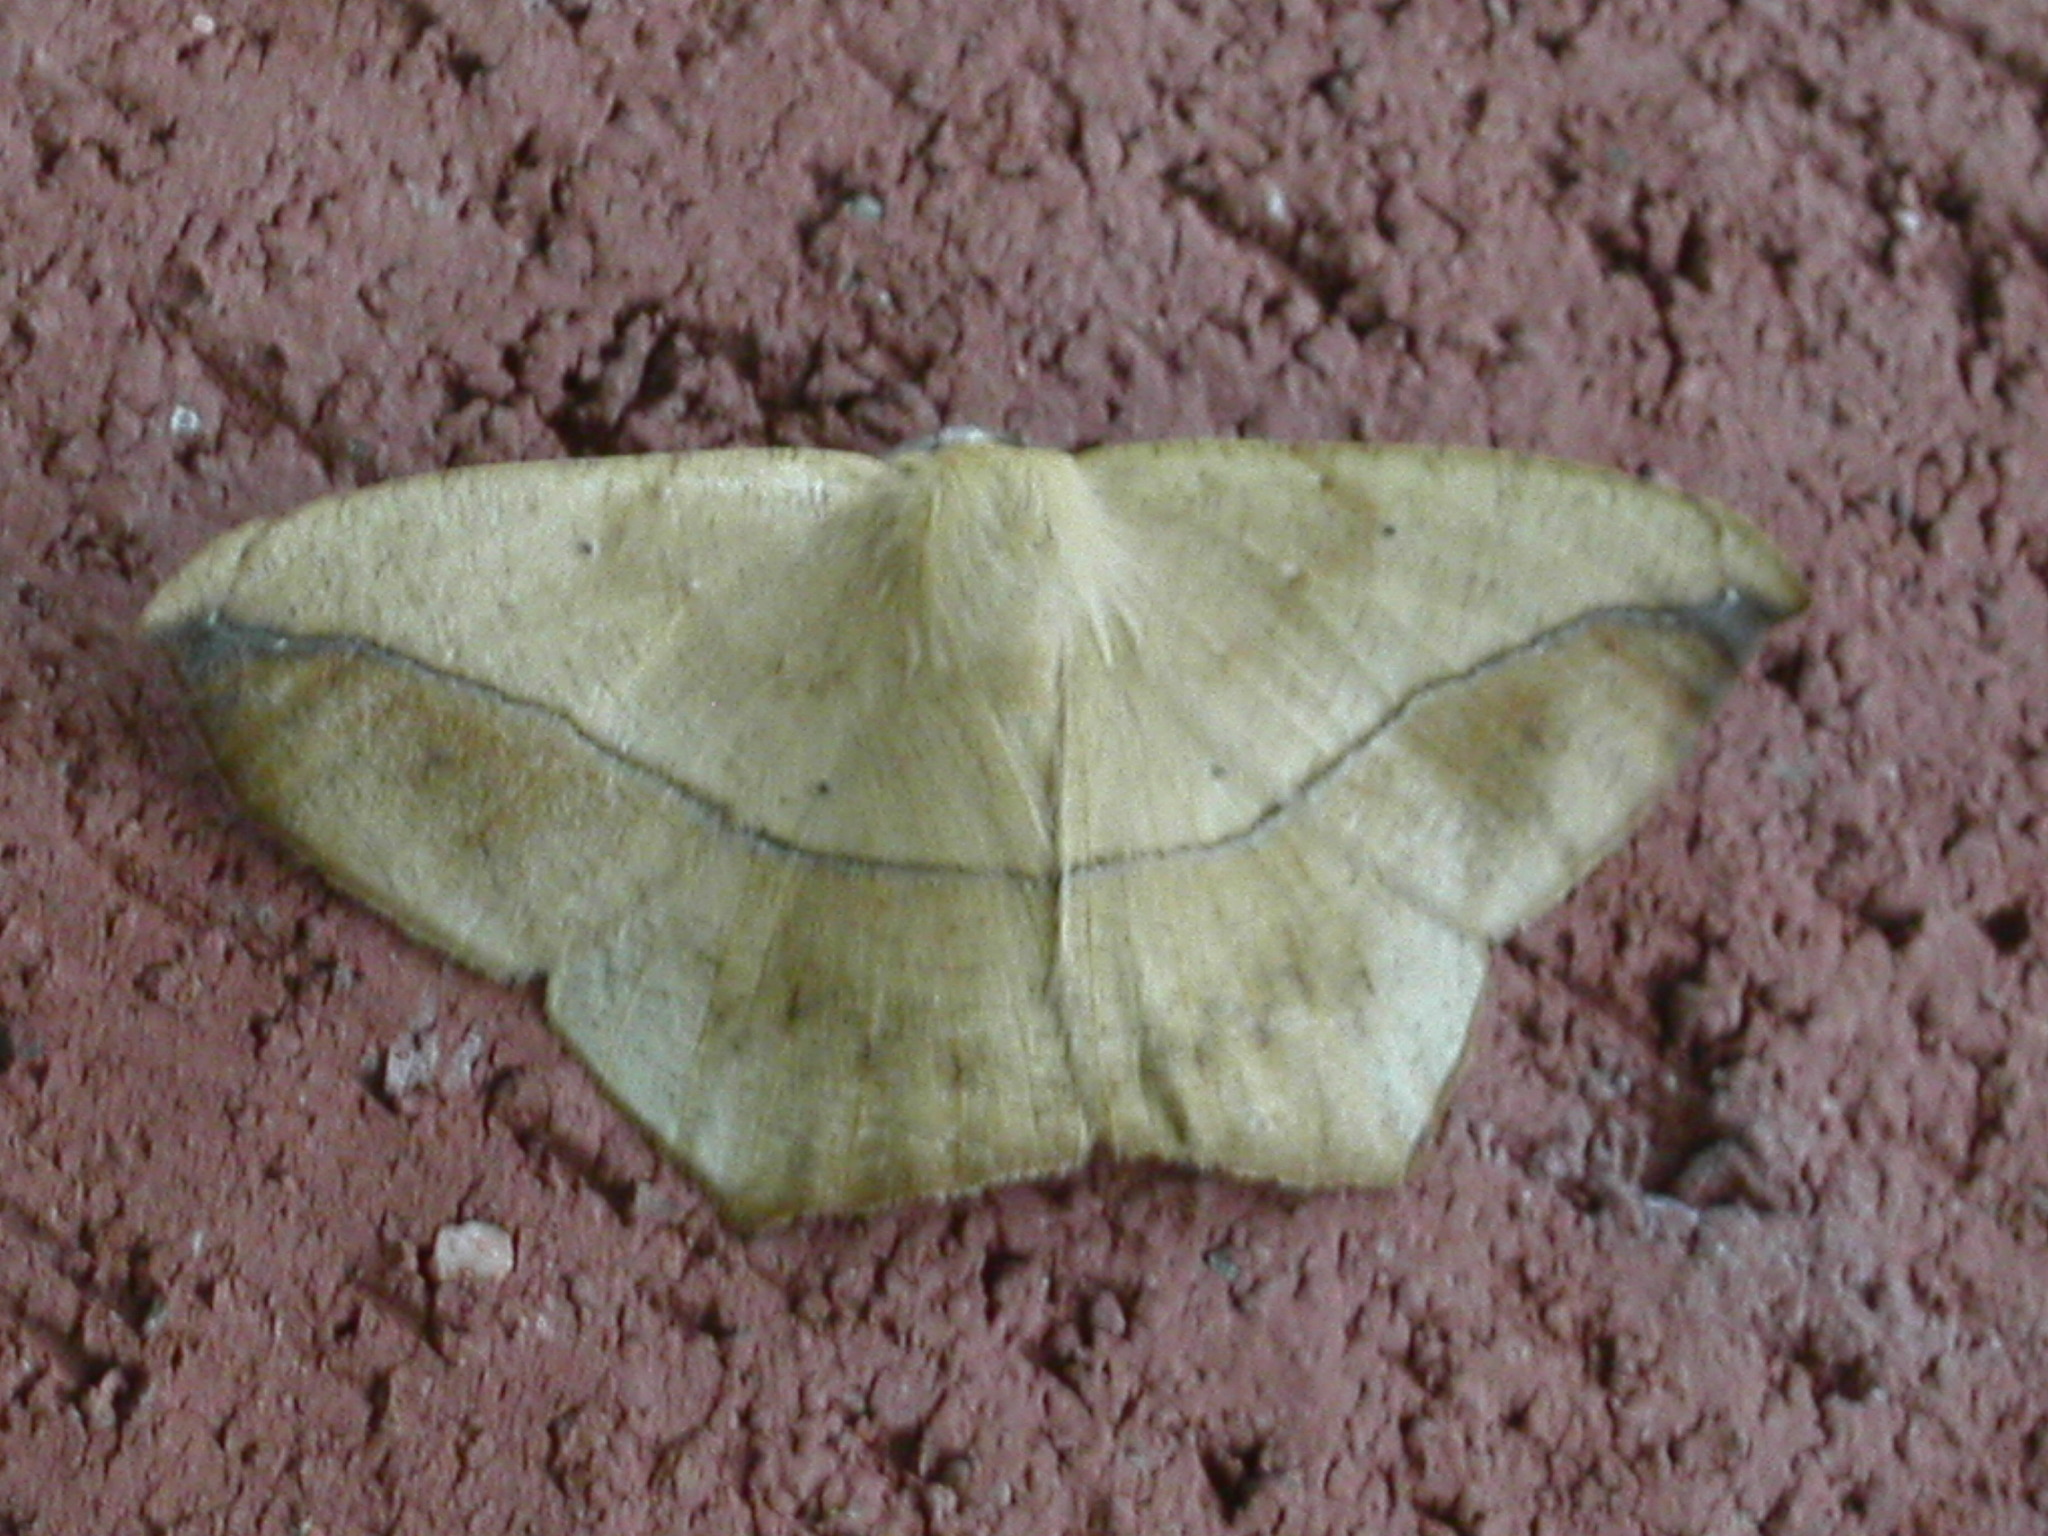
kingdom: Animalia
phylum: Arthropoda
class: Insecta
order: Lepidoptera
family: Geometridae
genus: Prochoerodes
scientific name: Prochoerodes lineola
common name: Large maple spanworm
